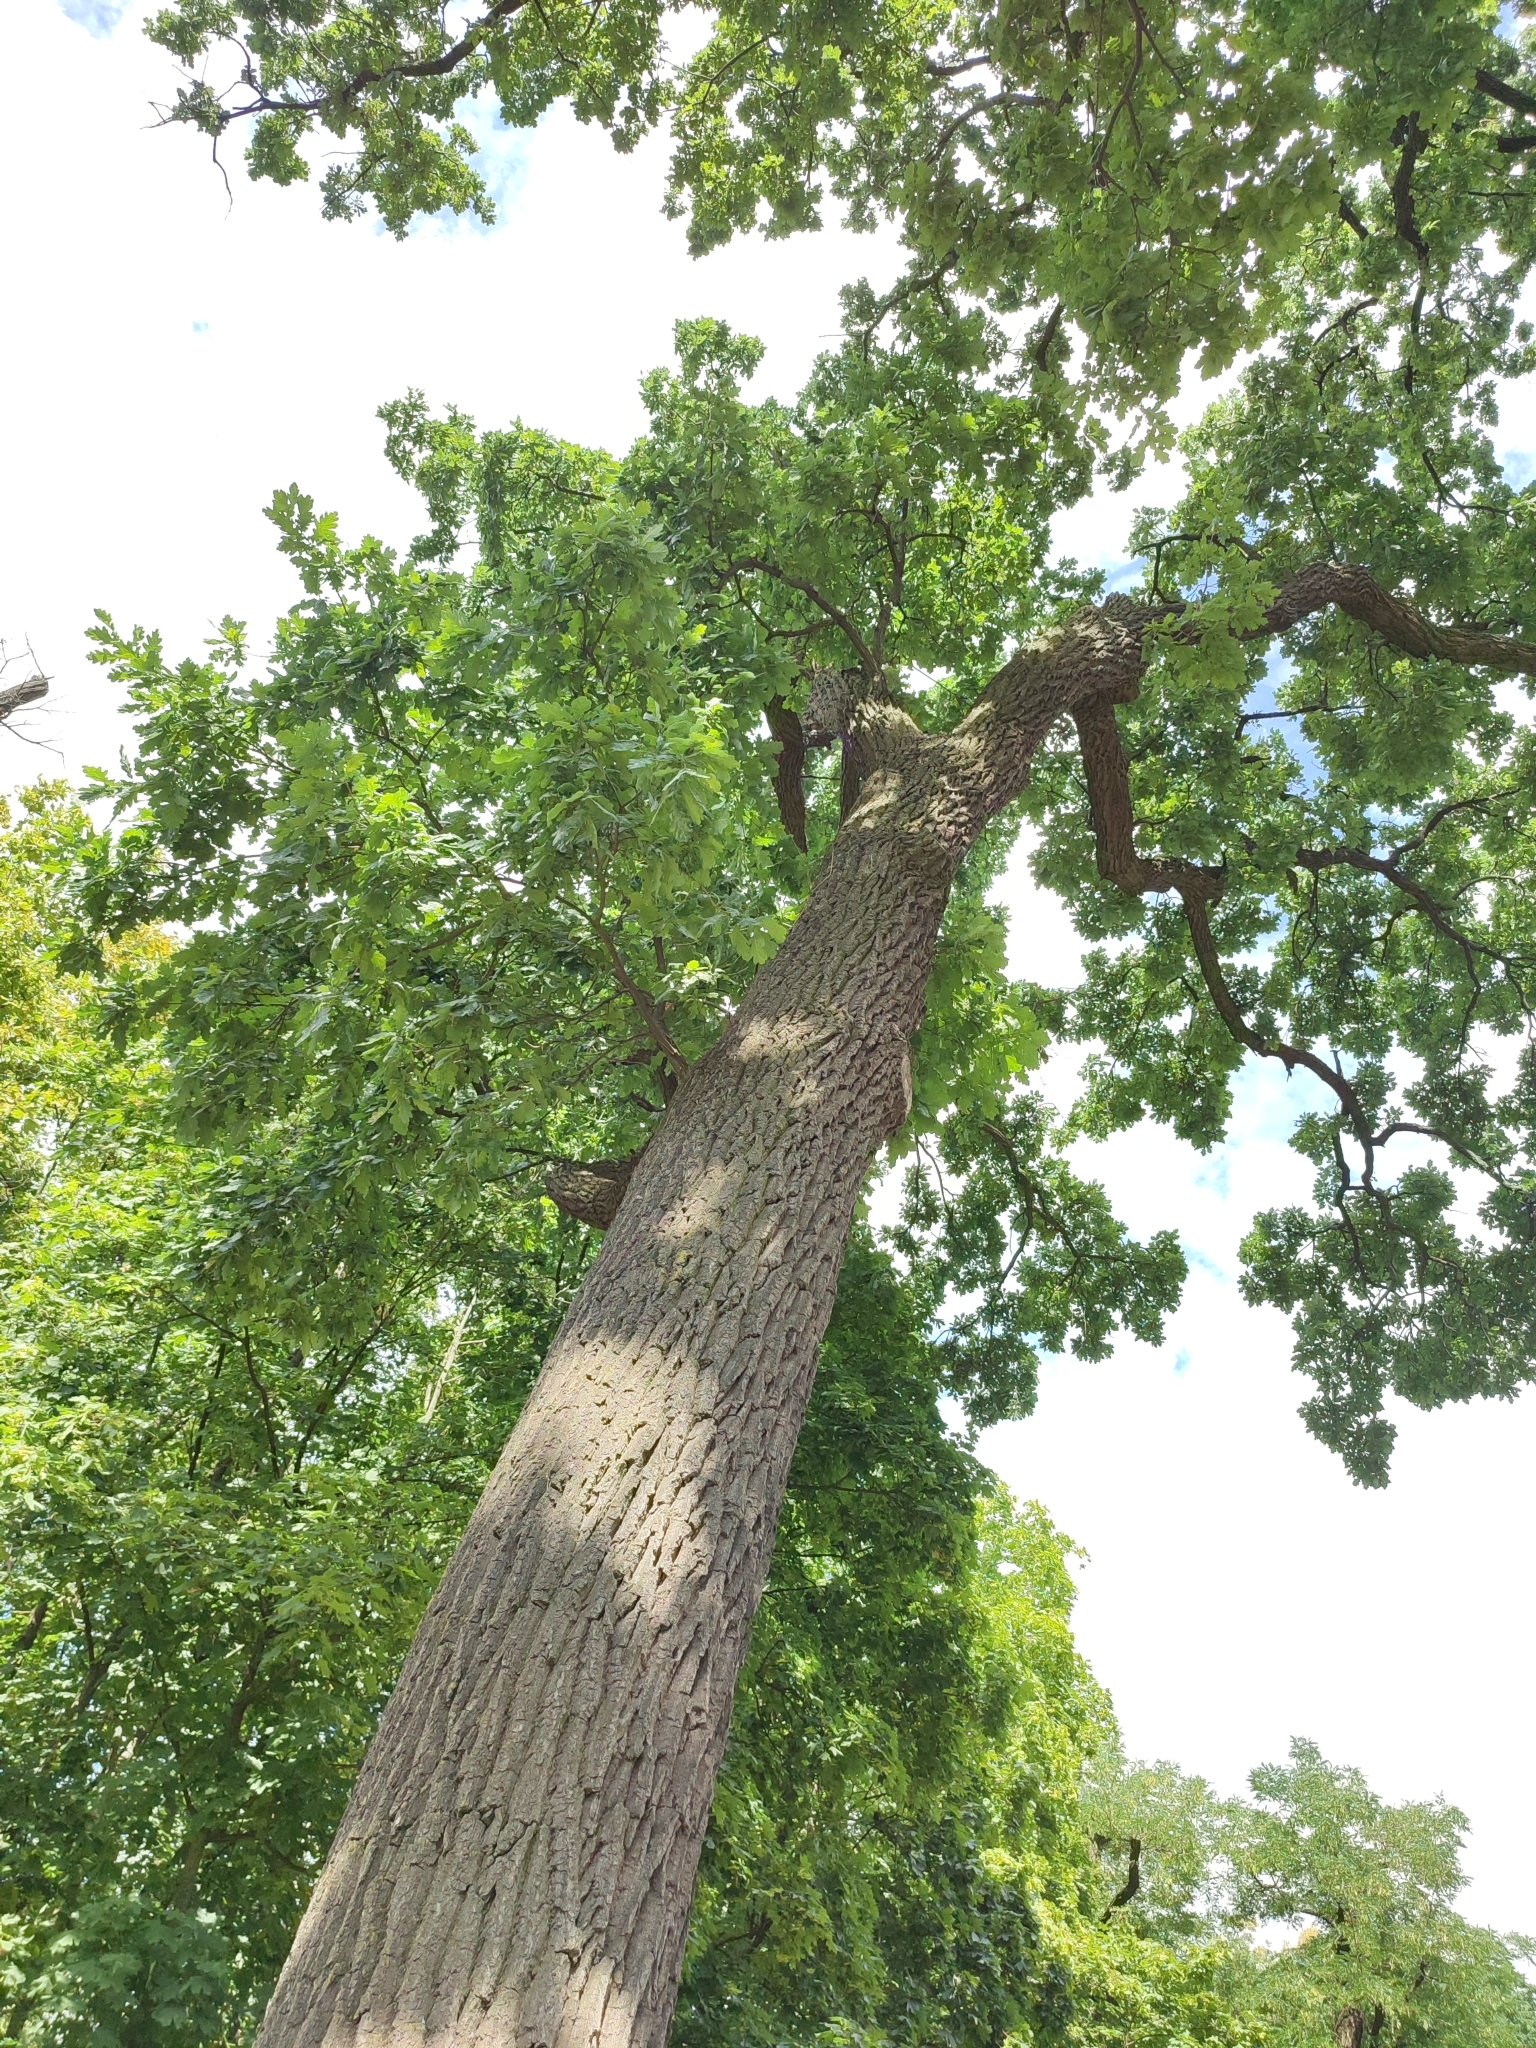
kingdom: Plantae
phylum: Tracheophyta
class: Magnoliopsida
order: Fagales
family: Fagaceae
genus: Quercus
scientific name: Quercus robur
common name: Pedunculate oak
